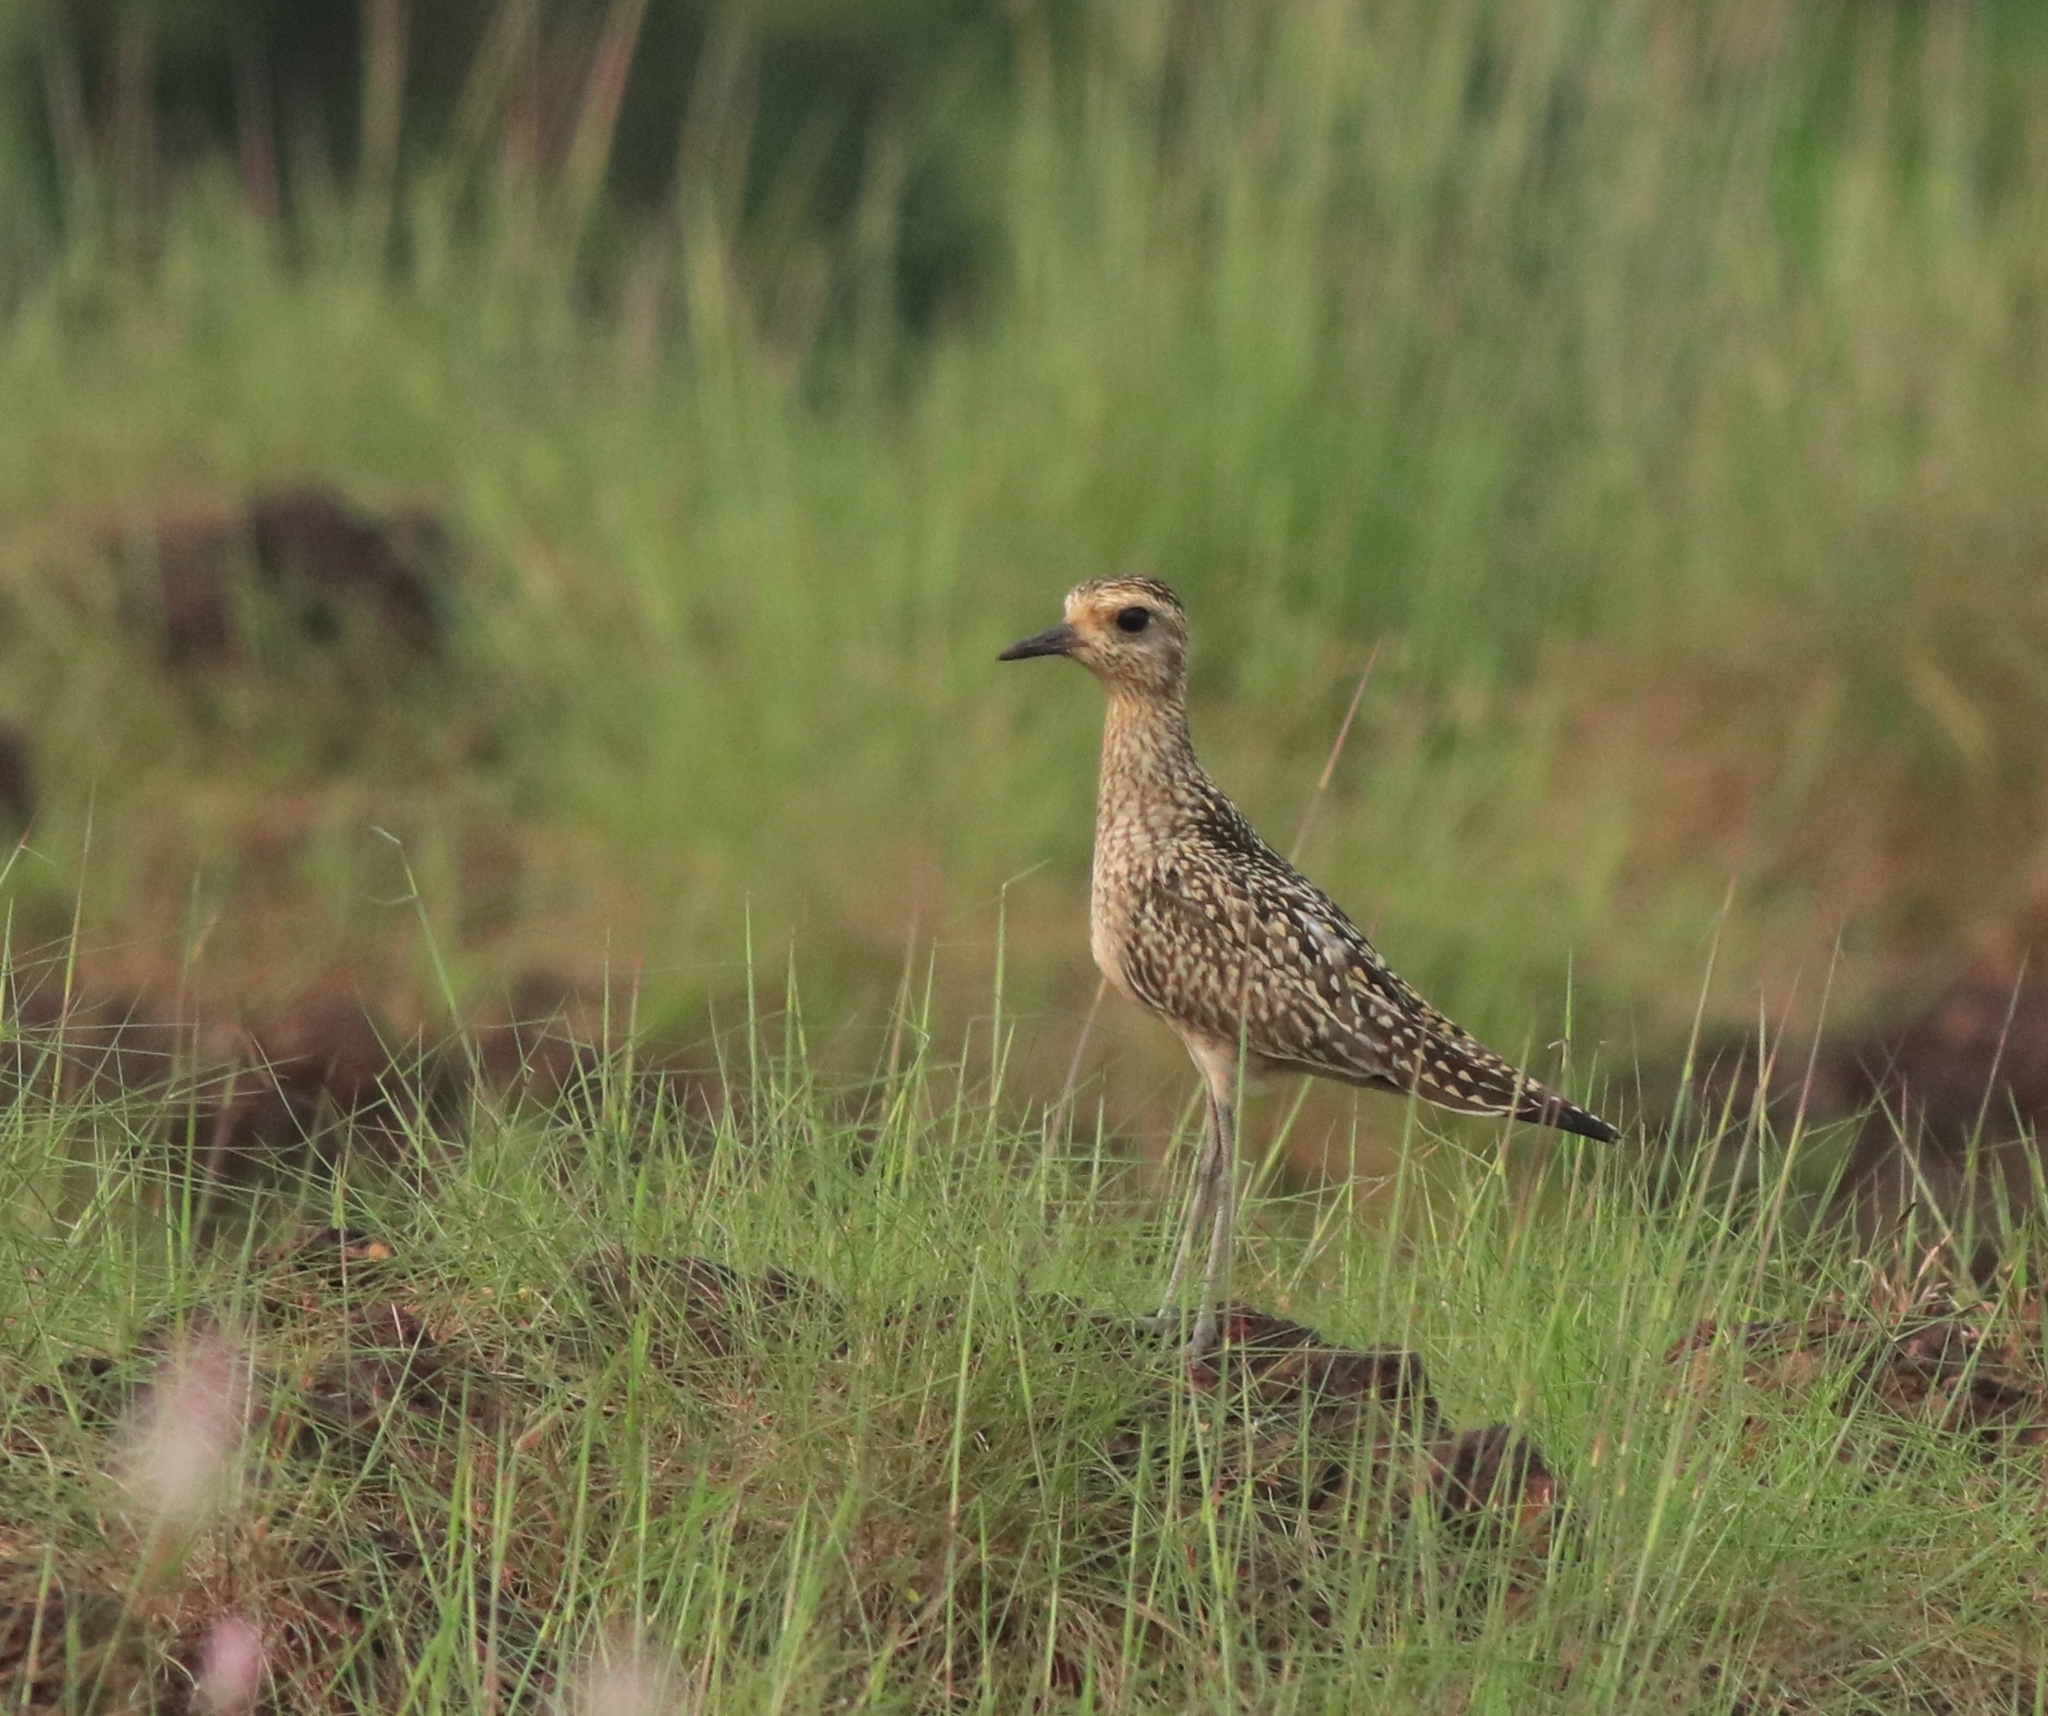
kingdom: Animalia
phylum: Chordata
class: Aves
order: Charadriiformes
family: Charadriidae
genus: Pluvialis
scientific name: Pluvialis fulva
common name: Pacific golden plover
